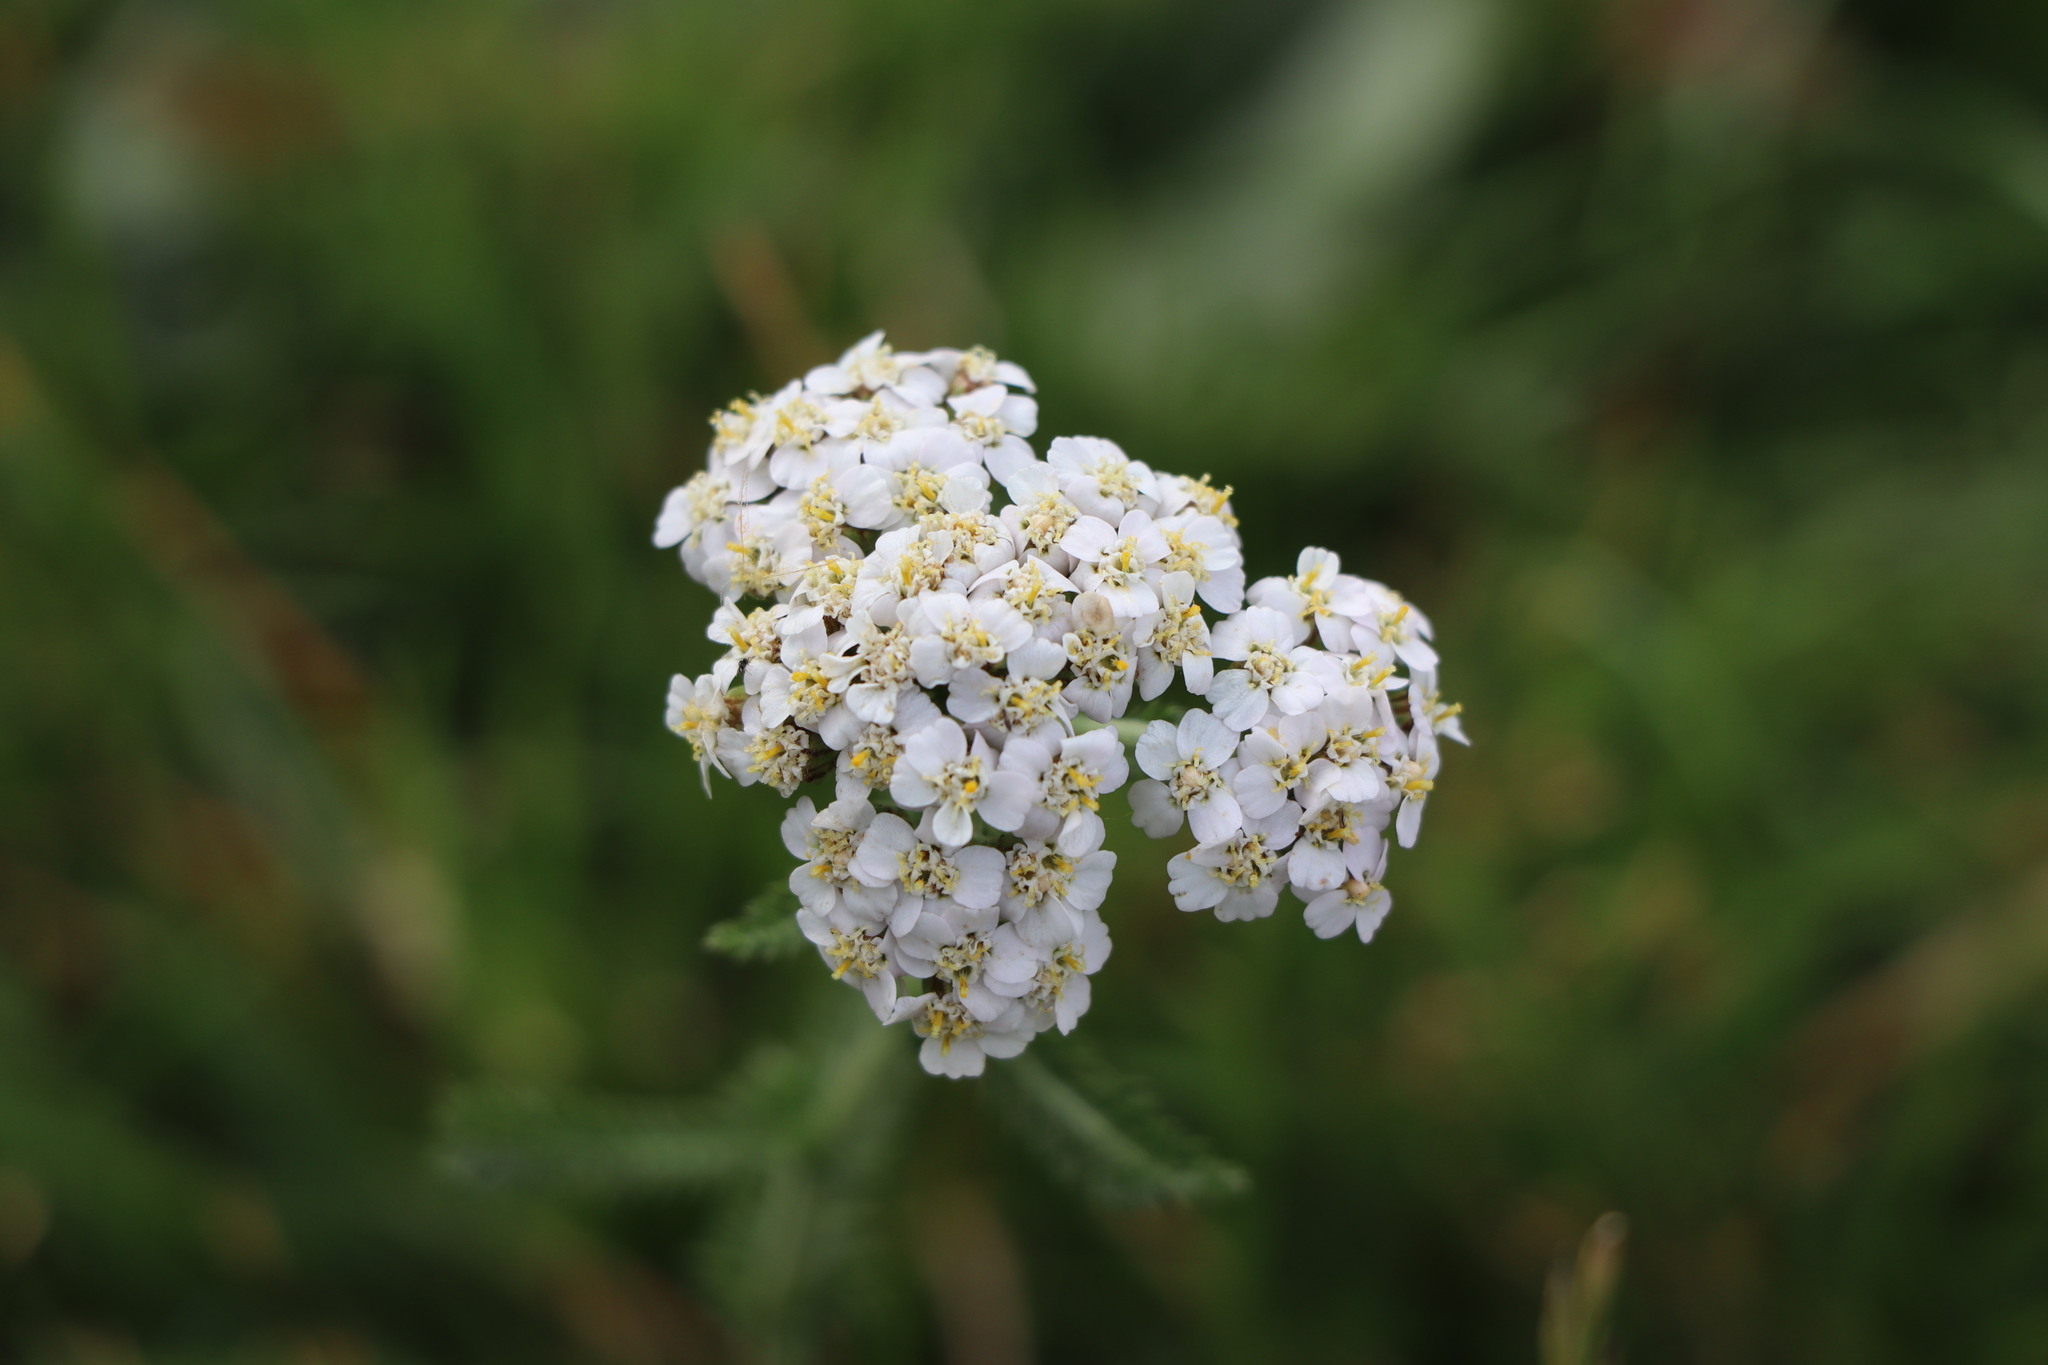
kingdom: Plantae
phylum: Tracheophyta
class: Magnoliopsida
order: Asterales
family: Asteraceae
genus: Achillea
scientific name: Achillea millefolium
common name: Yarrow
